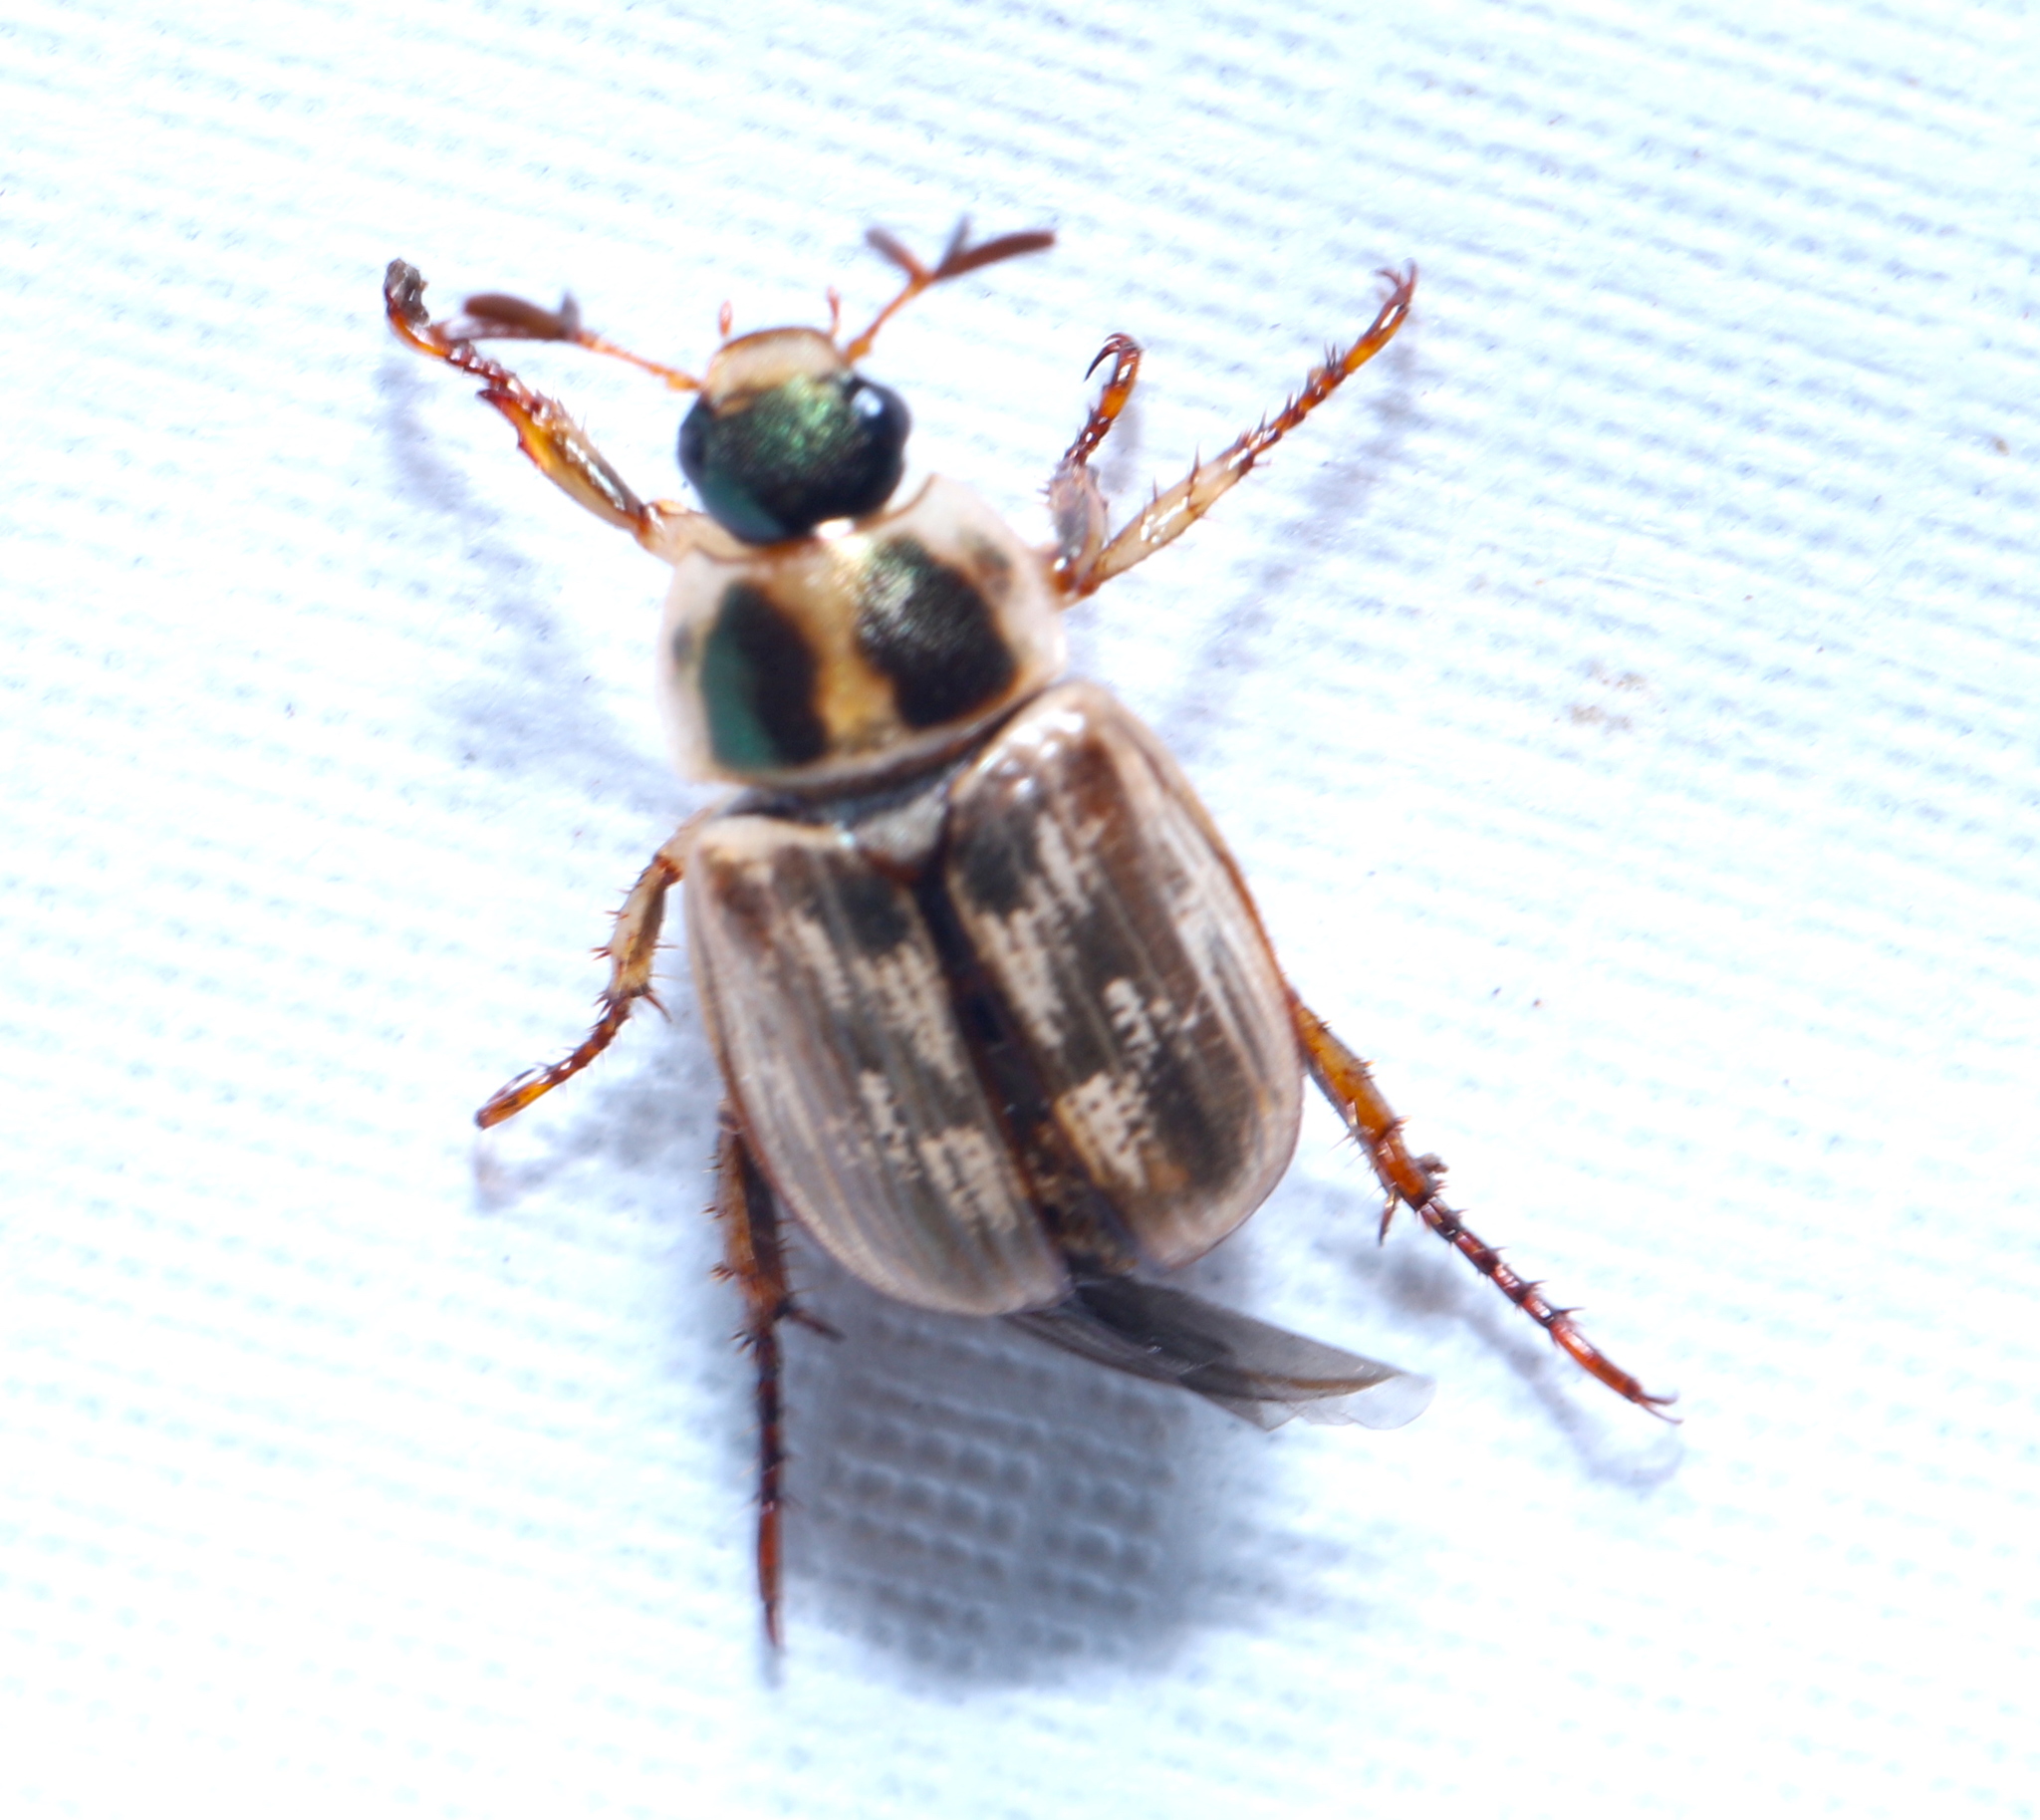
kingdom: Animalia
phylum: Arthropoda
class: Insecta
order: Coleoptera
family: Scarabaeidae
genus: Exomala
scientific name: Exomala orientalis
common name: Oriental beetle
